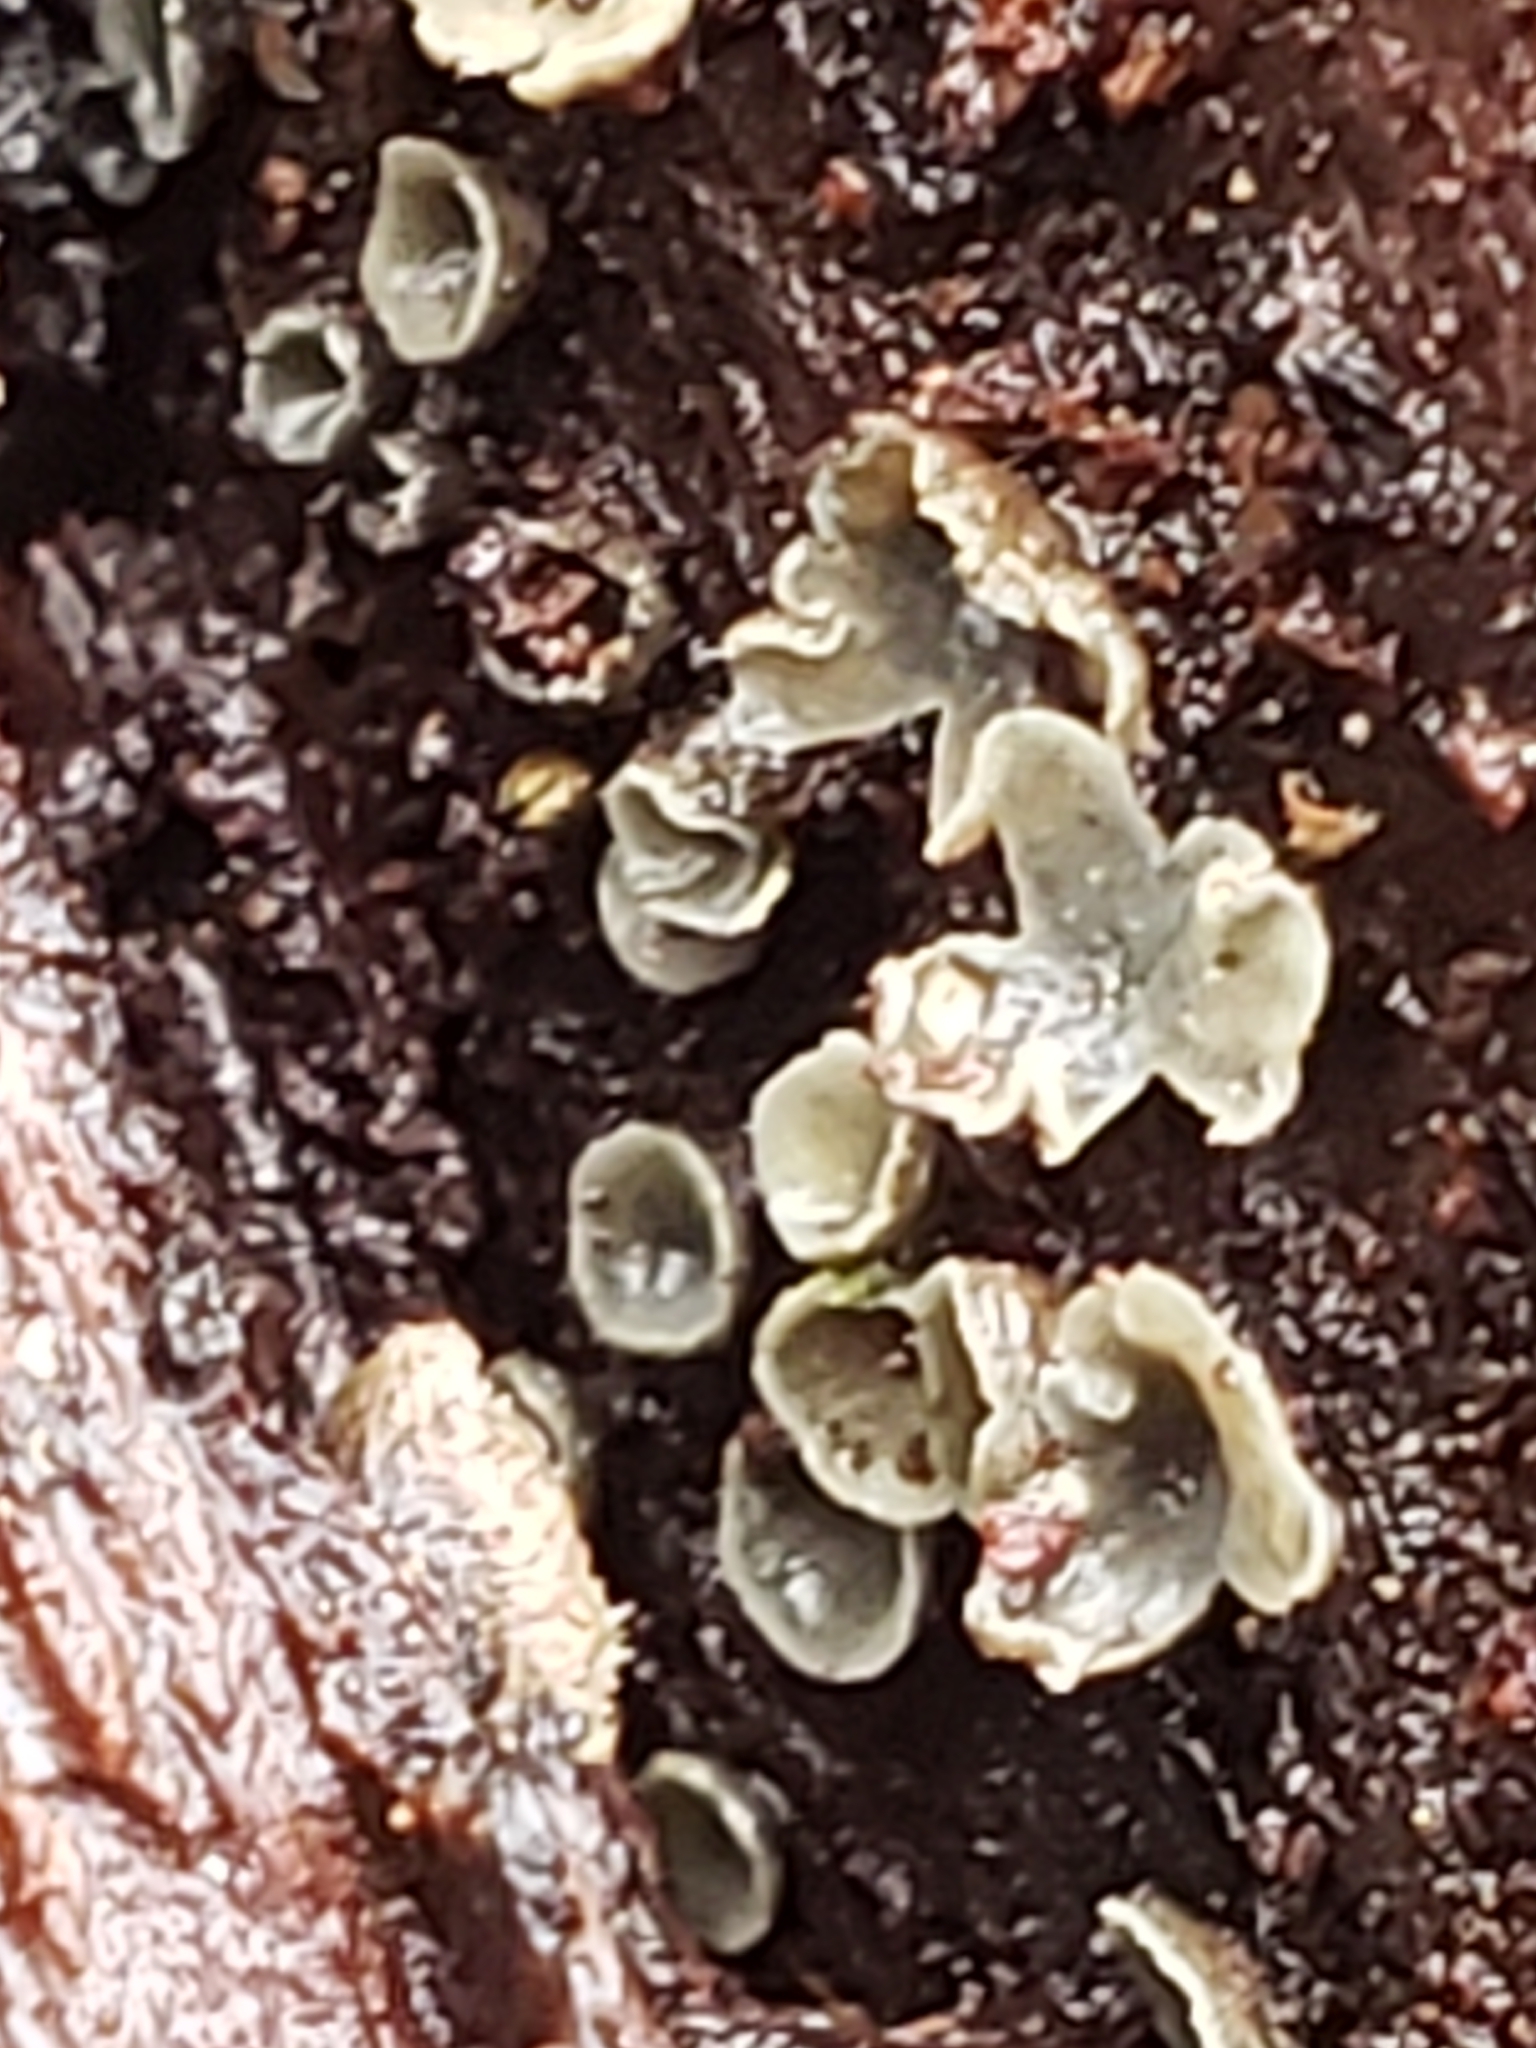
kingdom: Fungi
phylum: Ascomycota
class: Leotiomycetes
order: Helotiales
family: Chlorospleniaceae
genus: Chlorosplenium
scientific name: Chlorosplenium chlora
